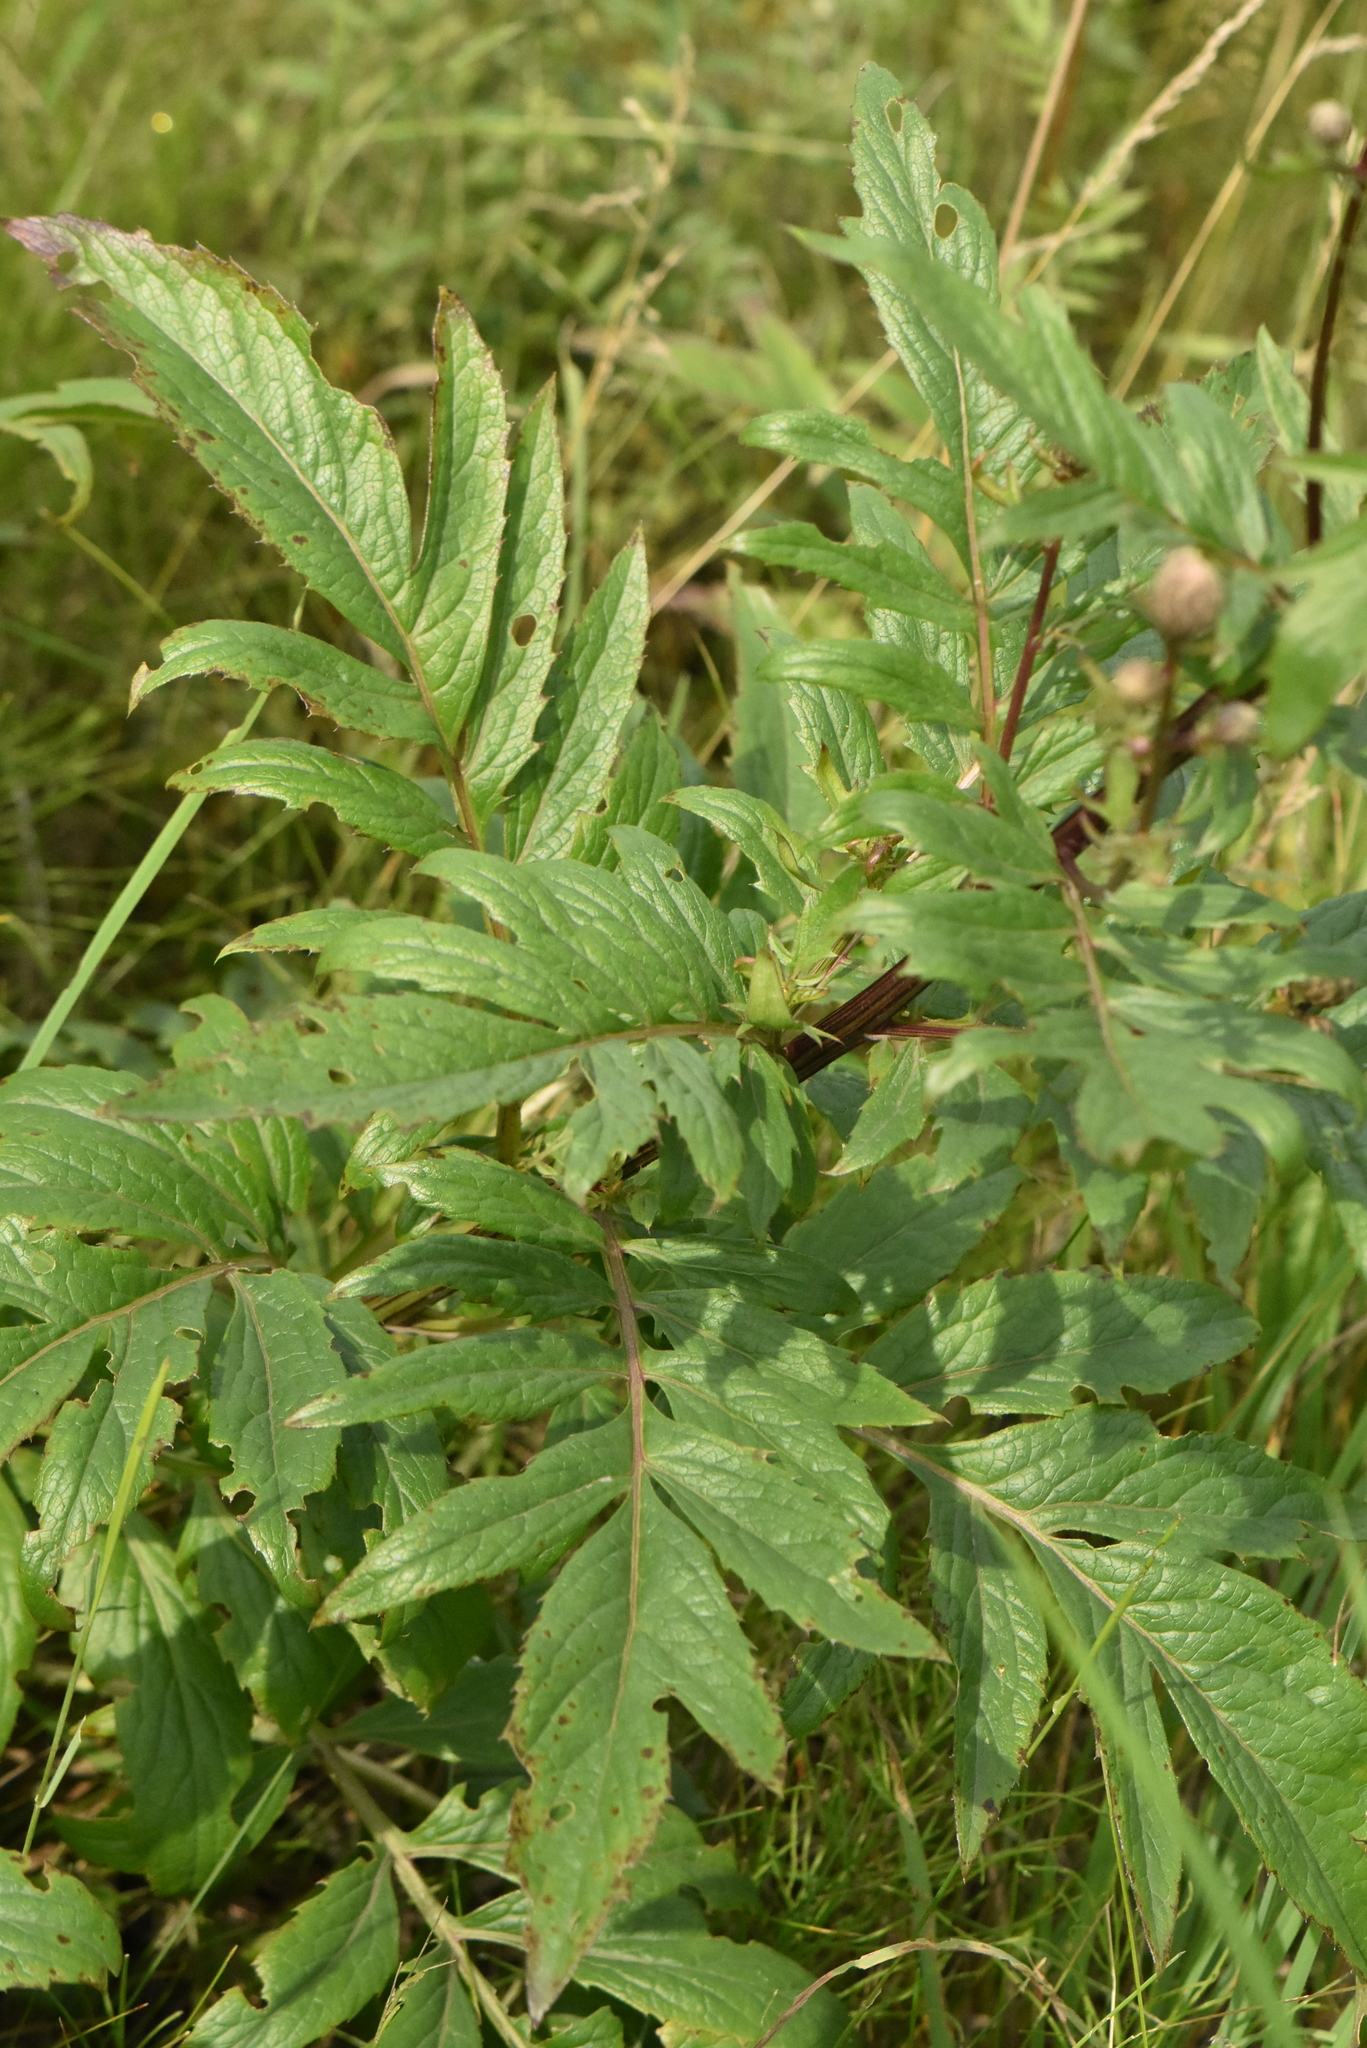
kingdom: Plantae
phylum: Tracheophyta
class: Magnoliopsida
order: Asterales
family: Asteraceae
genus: Serratula
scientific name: Serratula coronata
